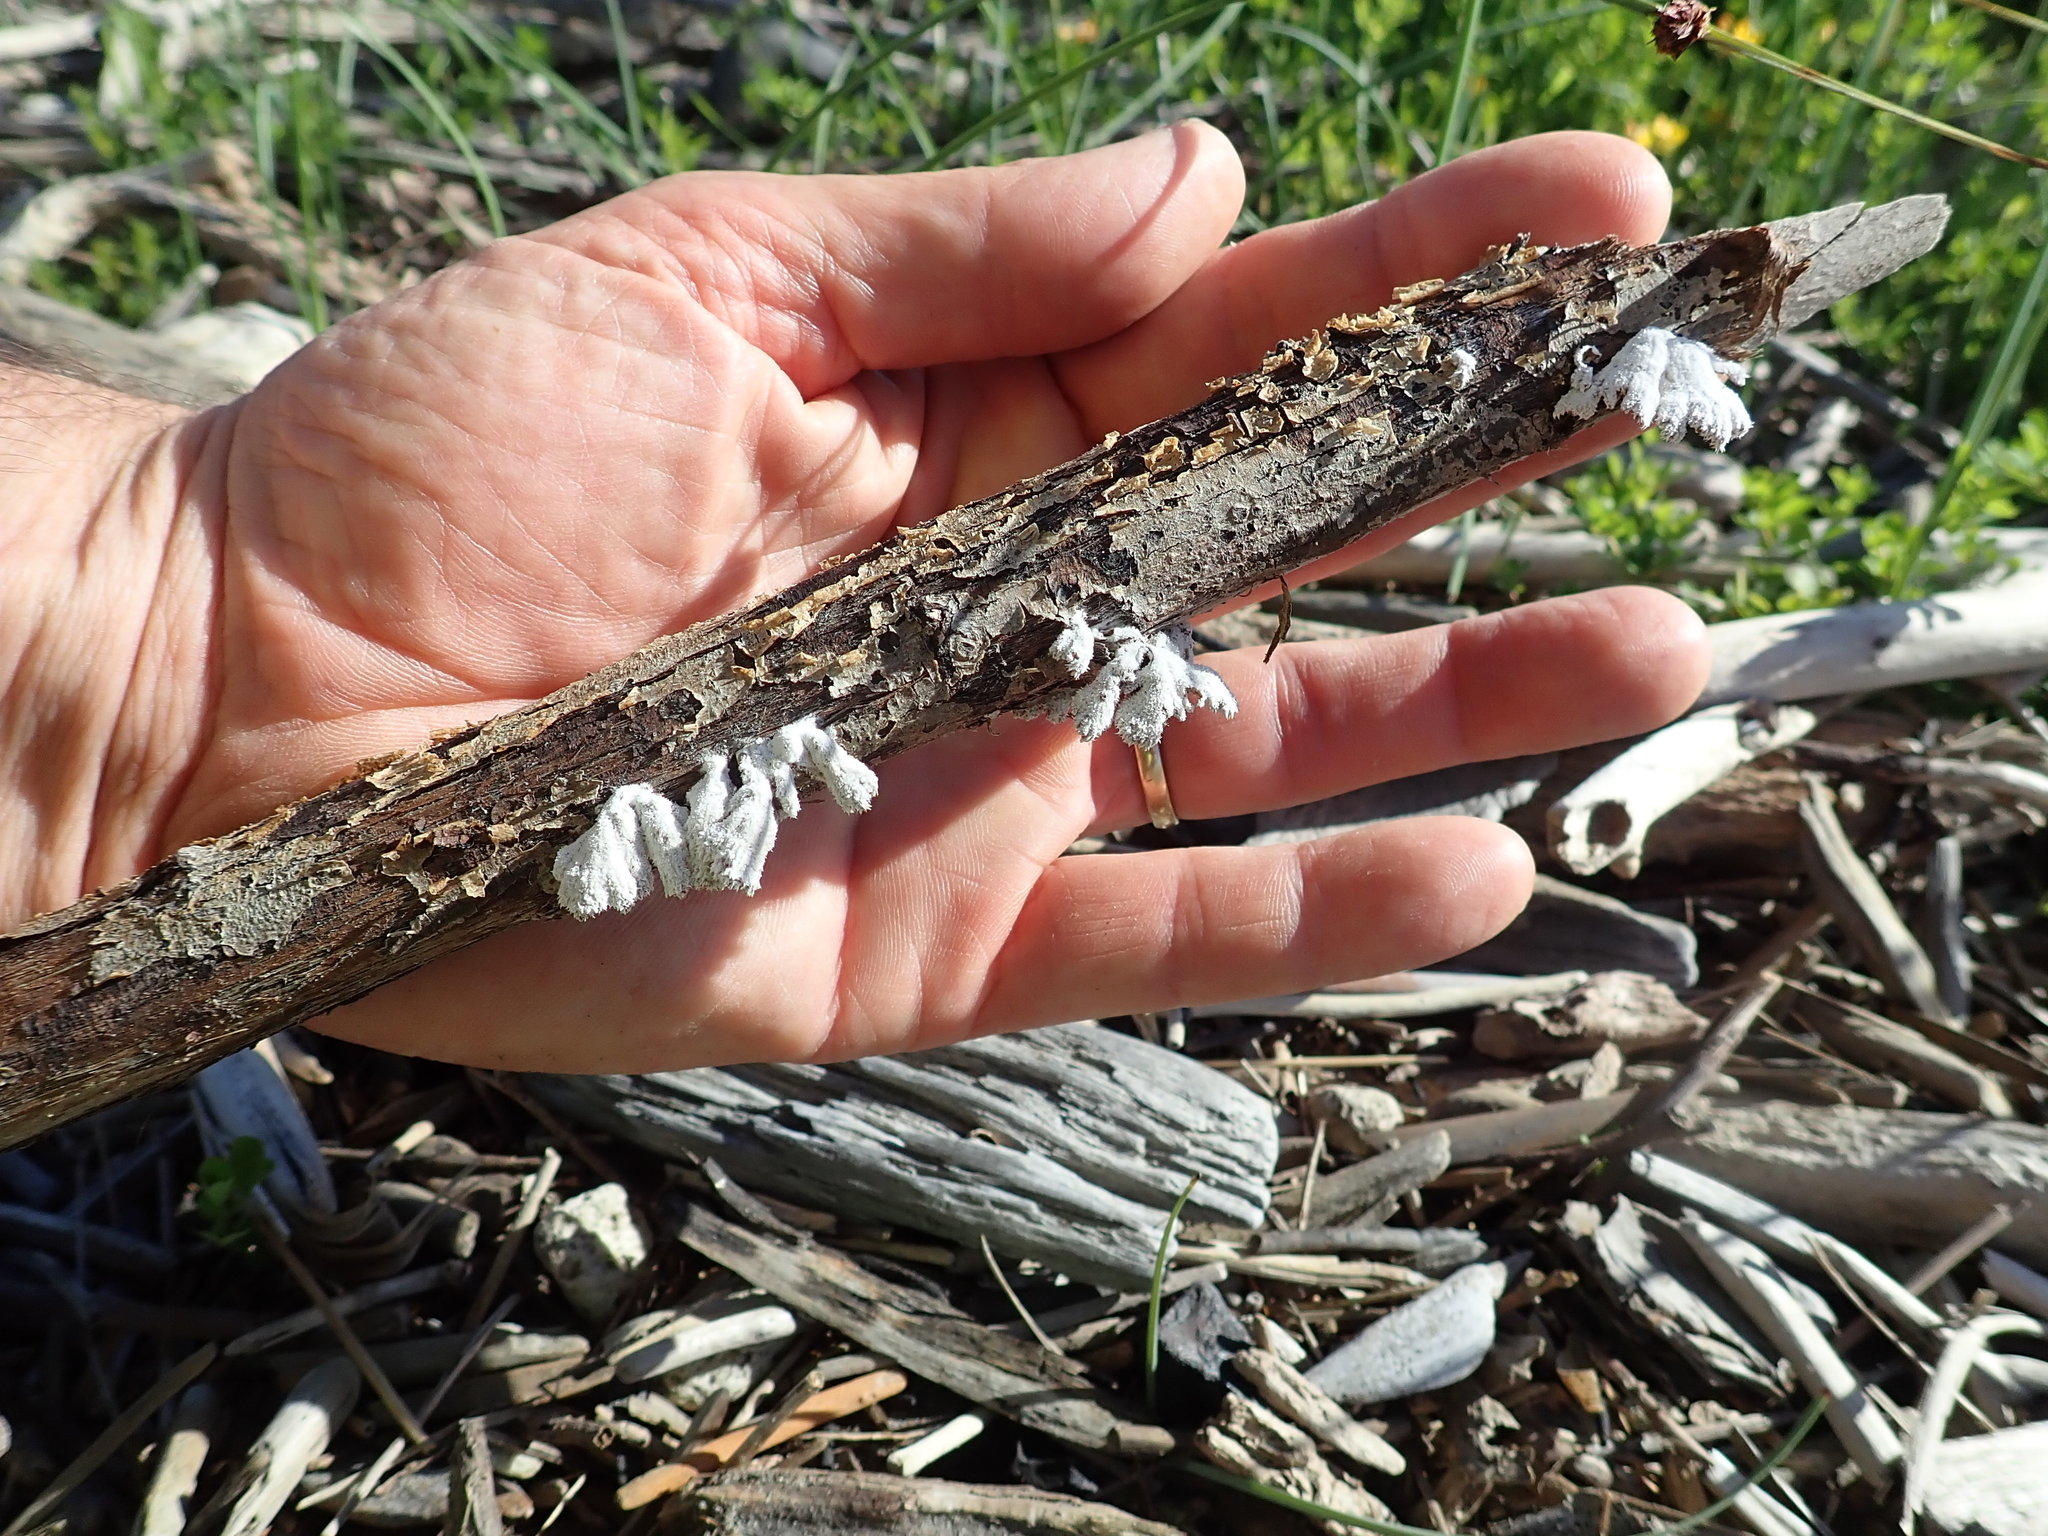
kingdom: Fungi
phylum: Basidiomycota
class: Agaricomycetes
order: Agaricales
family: Schizophyllaceae
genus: Schizophyllum
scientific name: Schizophyllum commune
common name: Common porecrust
